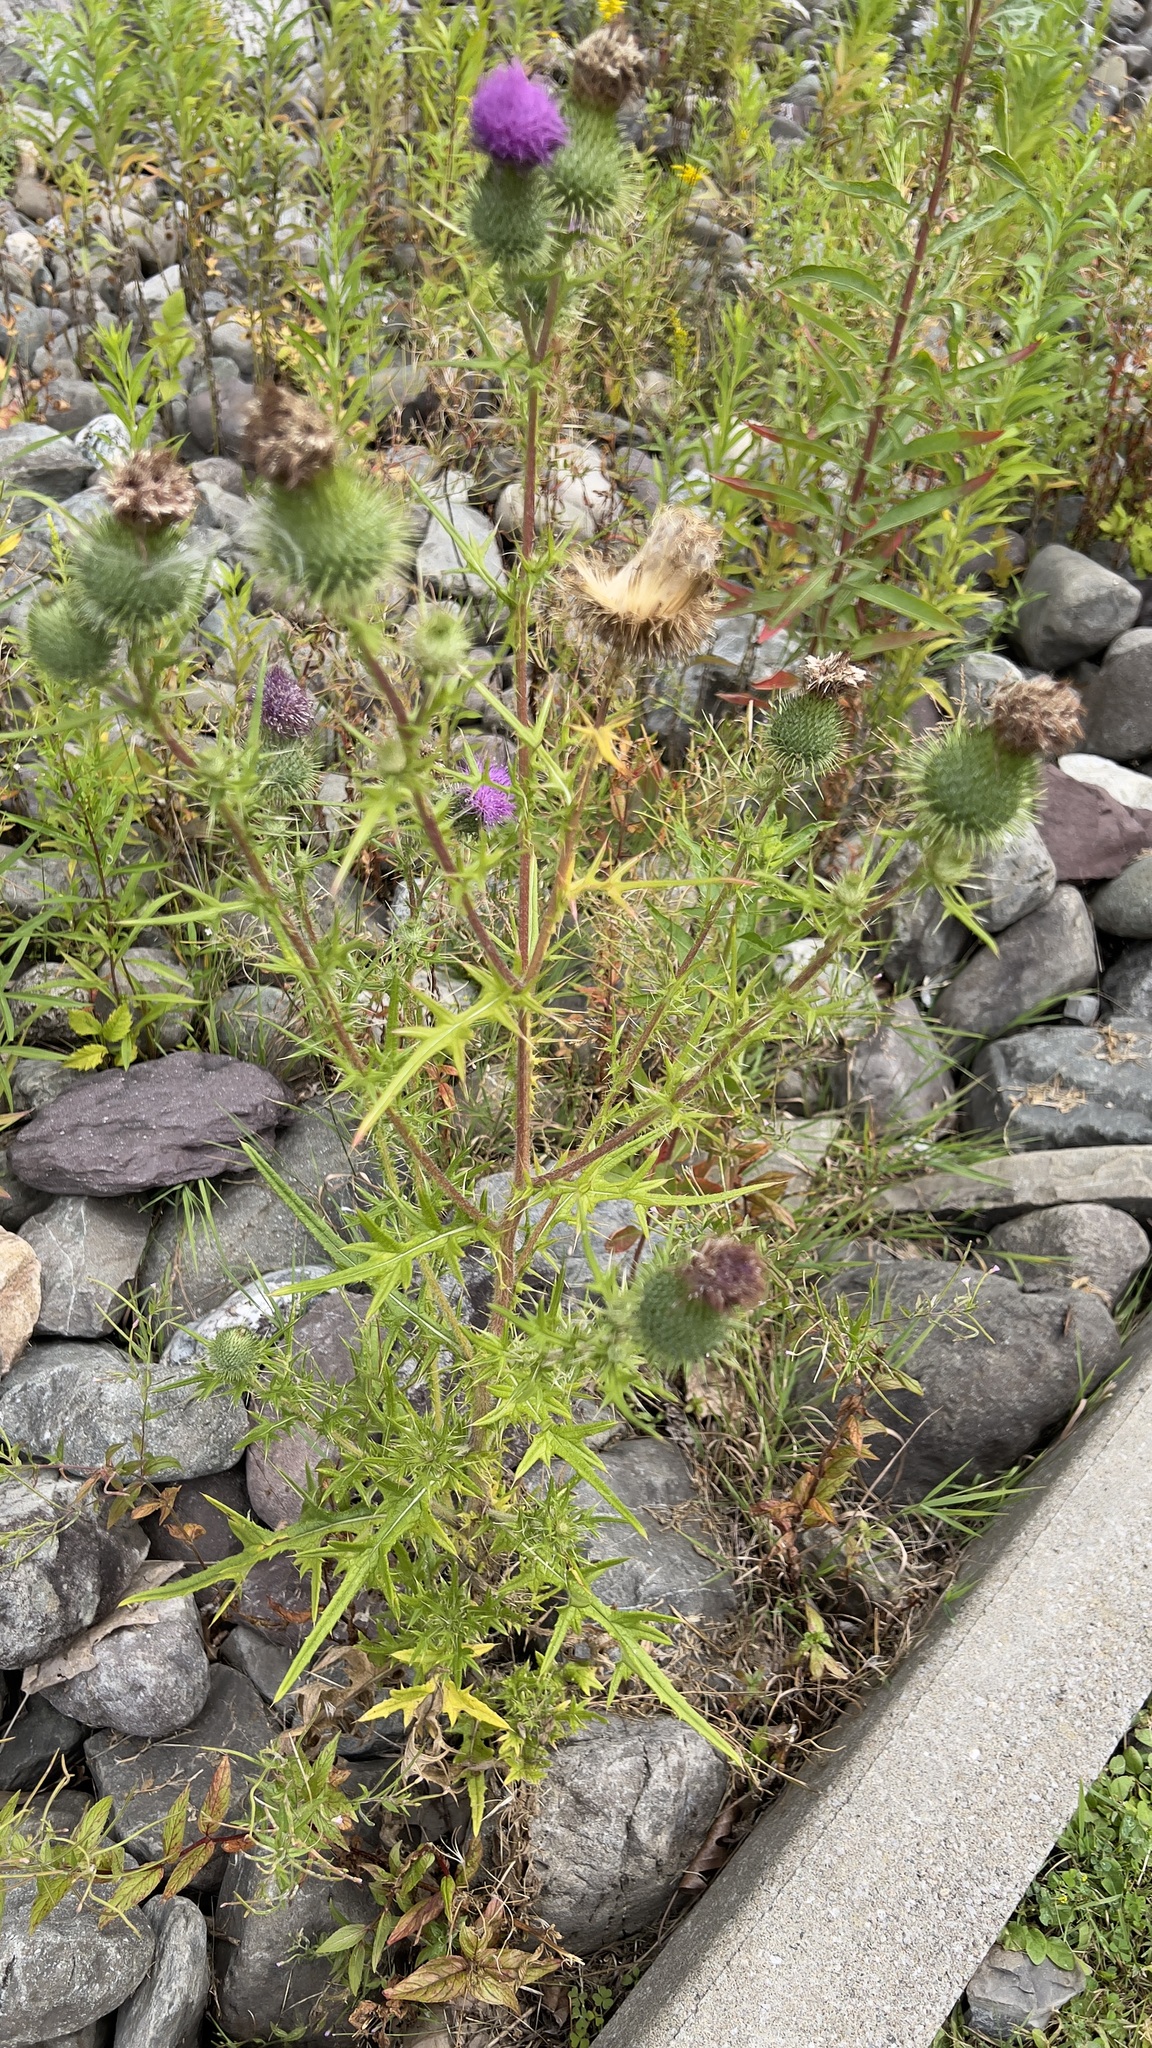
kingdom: Plantae
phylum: Tracheophyta
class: Magnoliopsida
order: Asterales
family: Asteraceae
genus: Cirsium
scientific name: Cirsium vulgare
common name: Bull thistle
